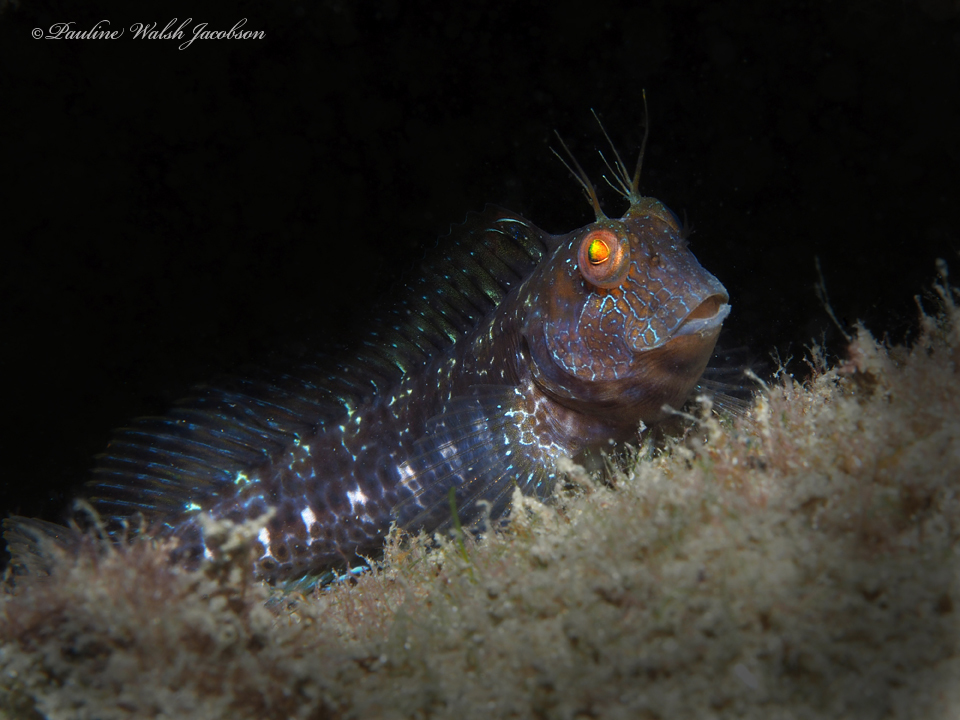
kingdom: Animalia
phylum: Chordata
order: Perciformes
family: Blenniidae
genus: Parablennius
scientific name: Parablennius marmoreus
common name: Seaweed blenny
